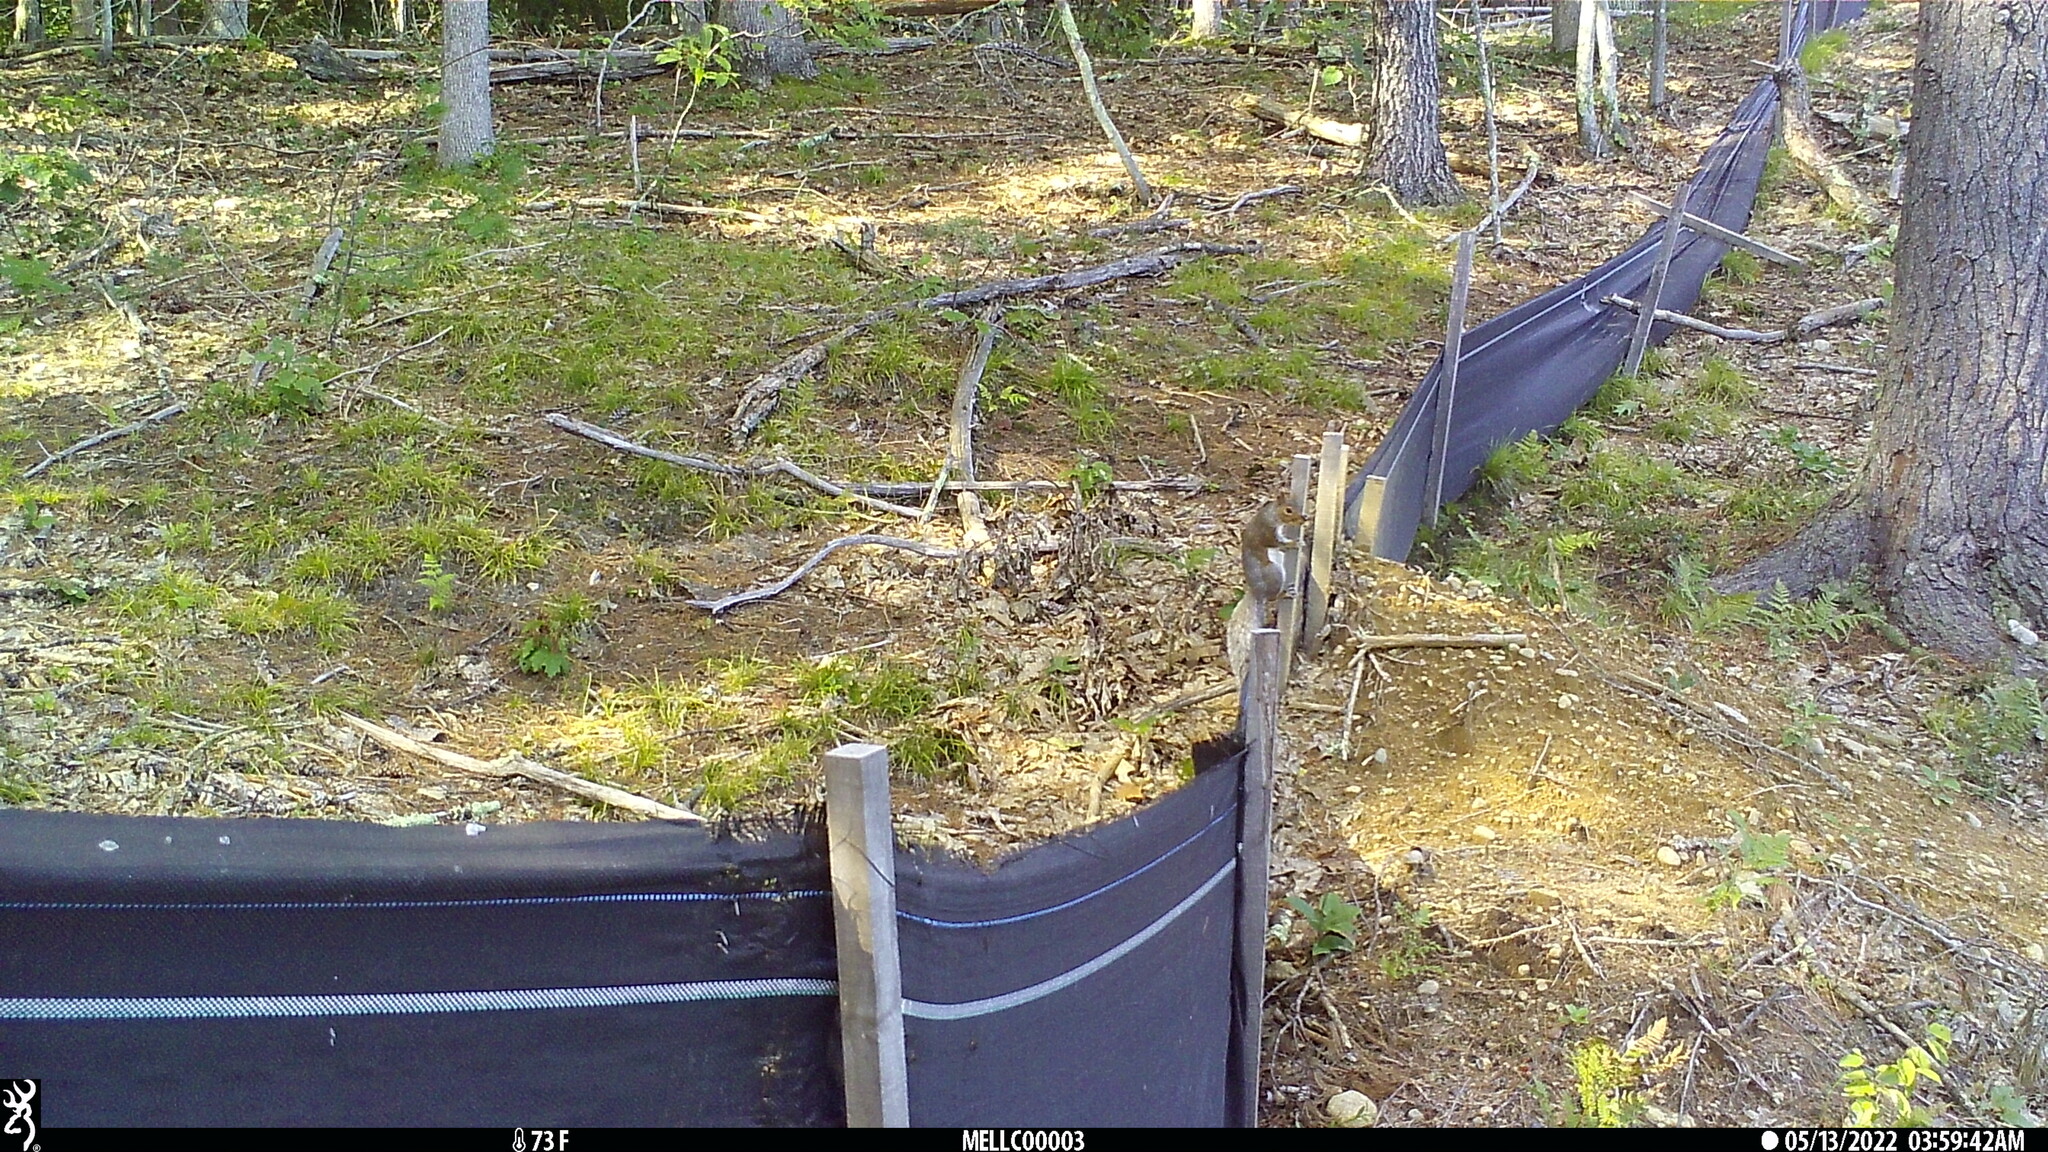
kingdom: Animalia
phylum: Chordata
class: Mammalia
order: Rodentia
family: Sciuridae
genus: Sciurus
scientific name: Sciurus carolinensis
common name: Eastern gray squirrel
